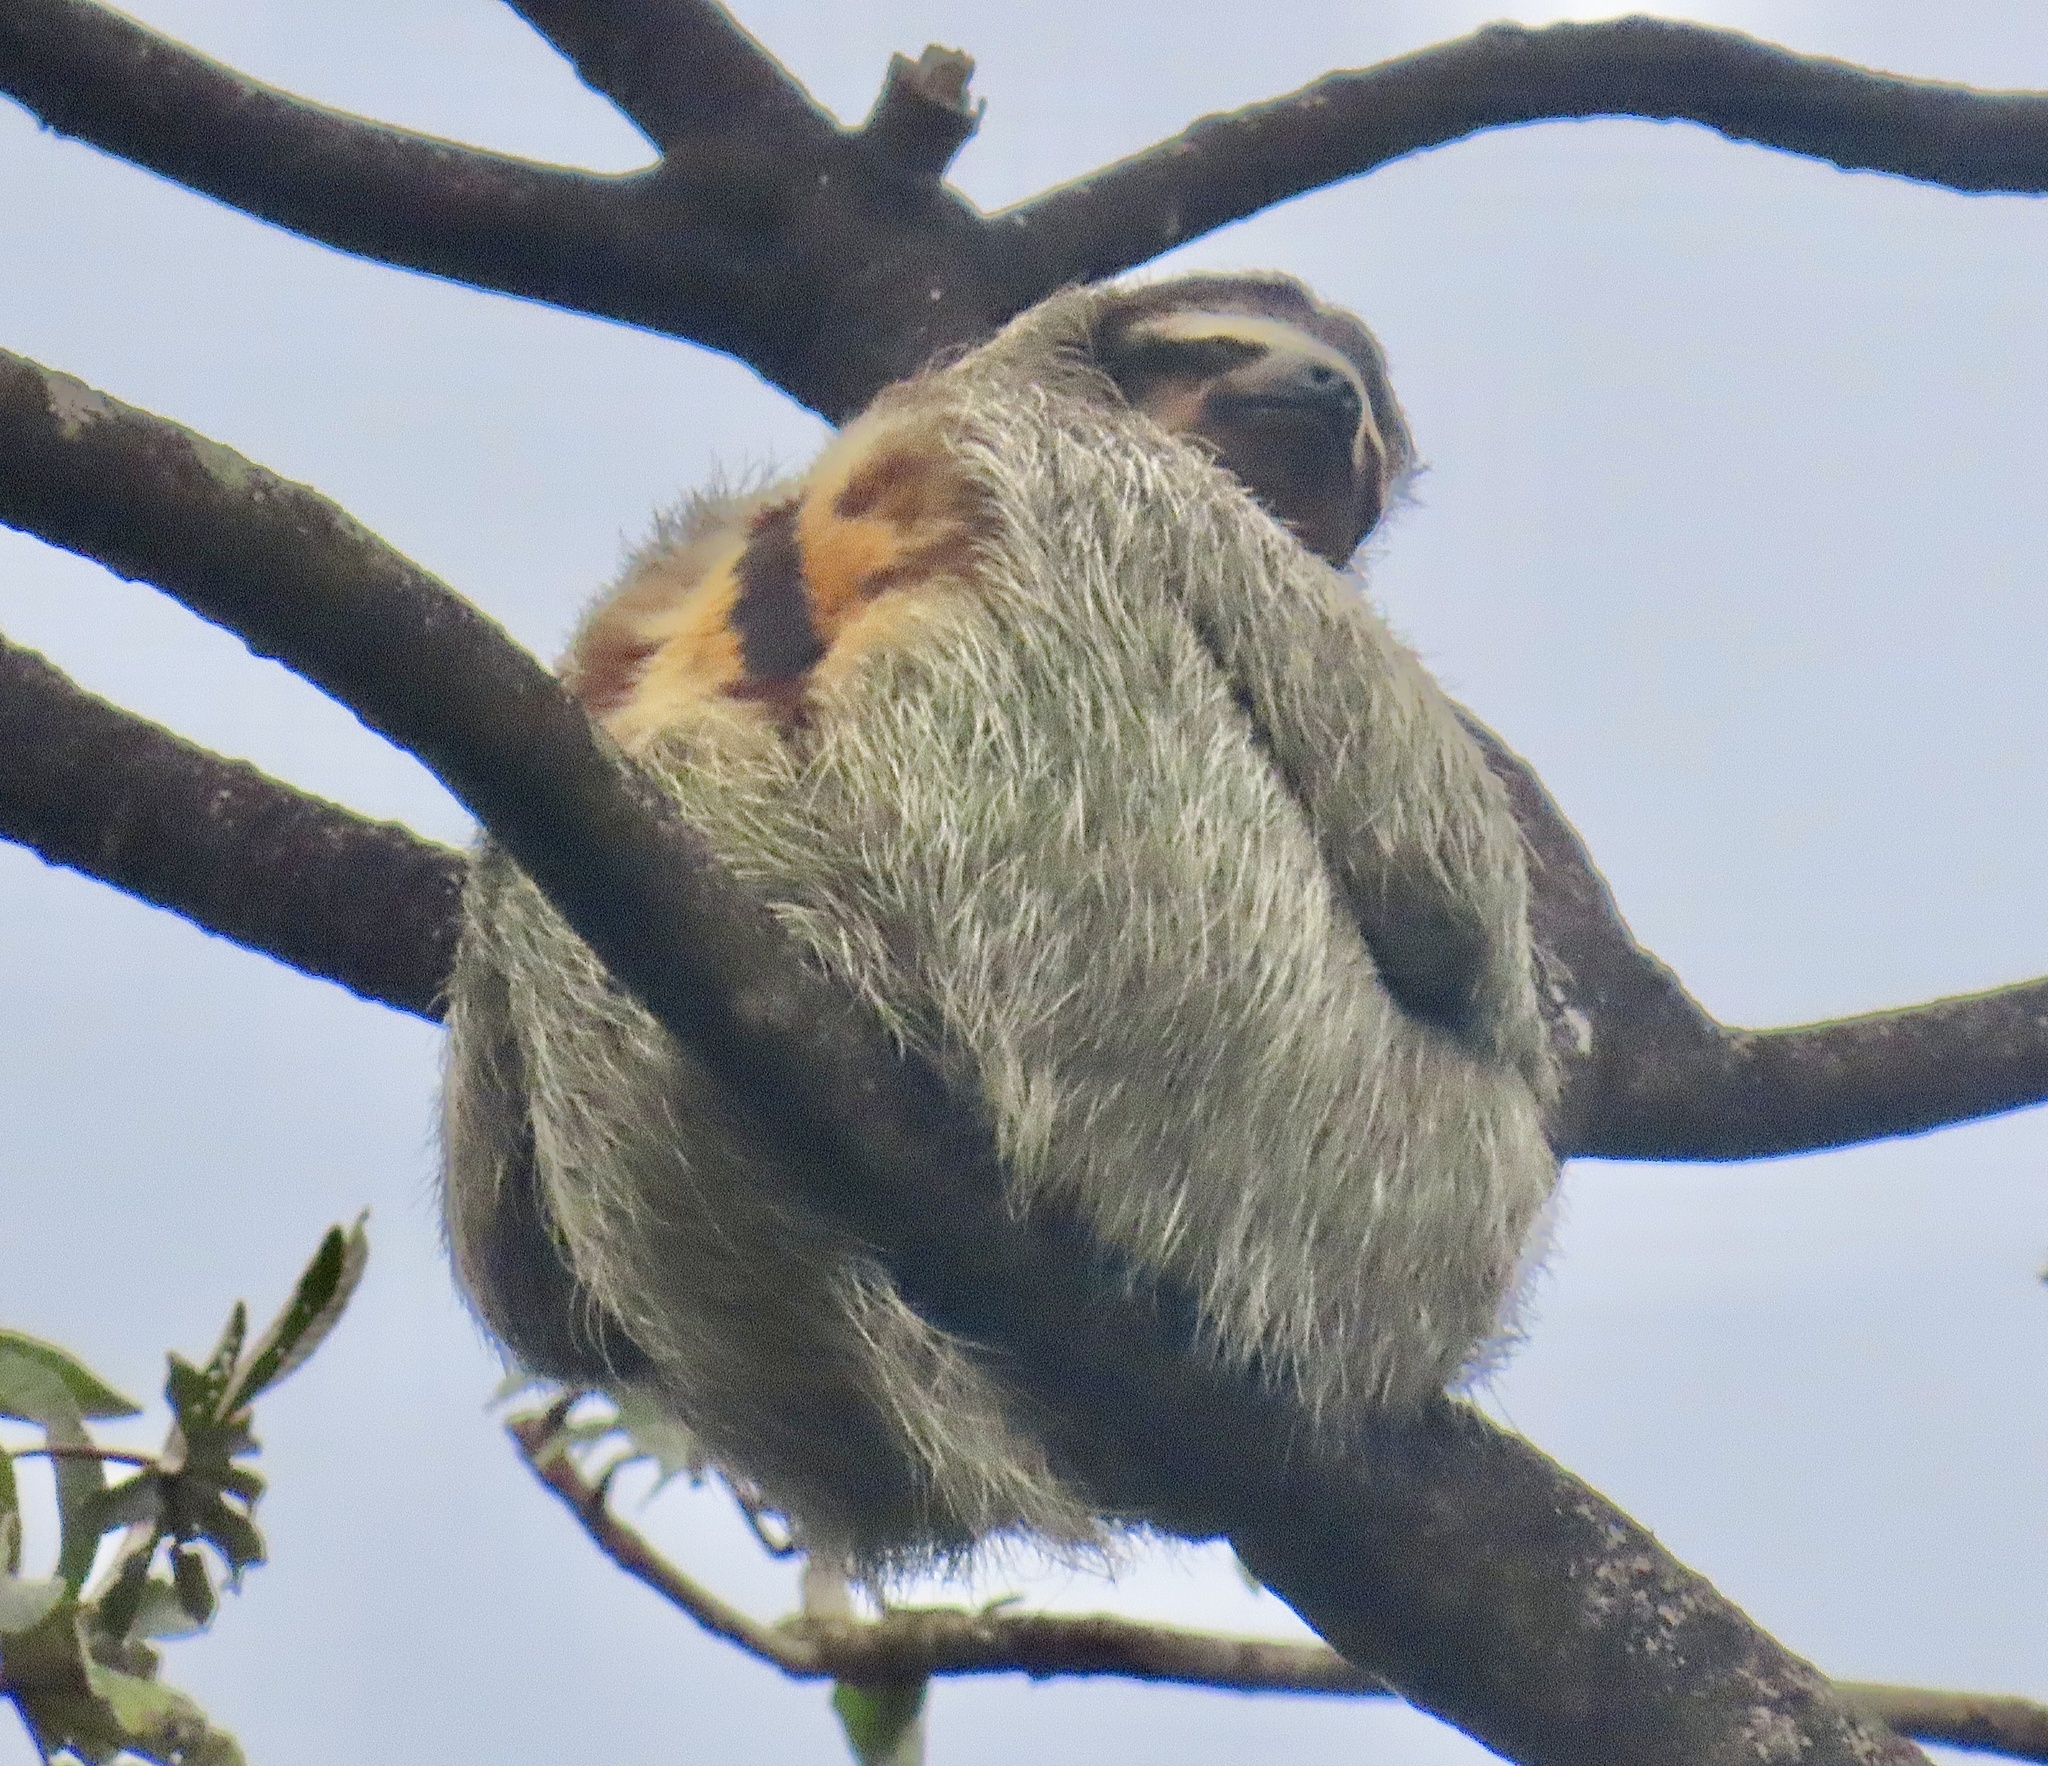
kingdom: Animalia
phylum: Chordata
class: Mammalia
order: Pilosa
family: Bradypodidae
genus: Bradypus
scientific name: Bradypus variegatus
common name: Brown-throated three-toed sloth
